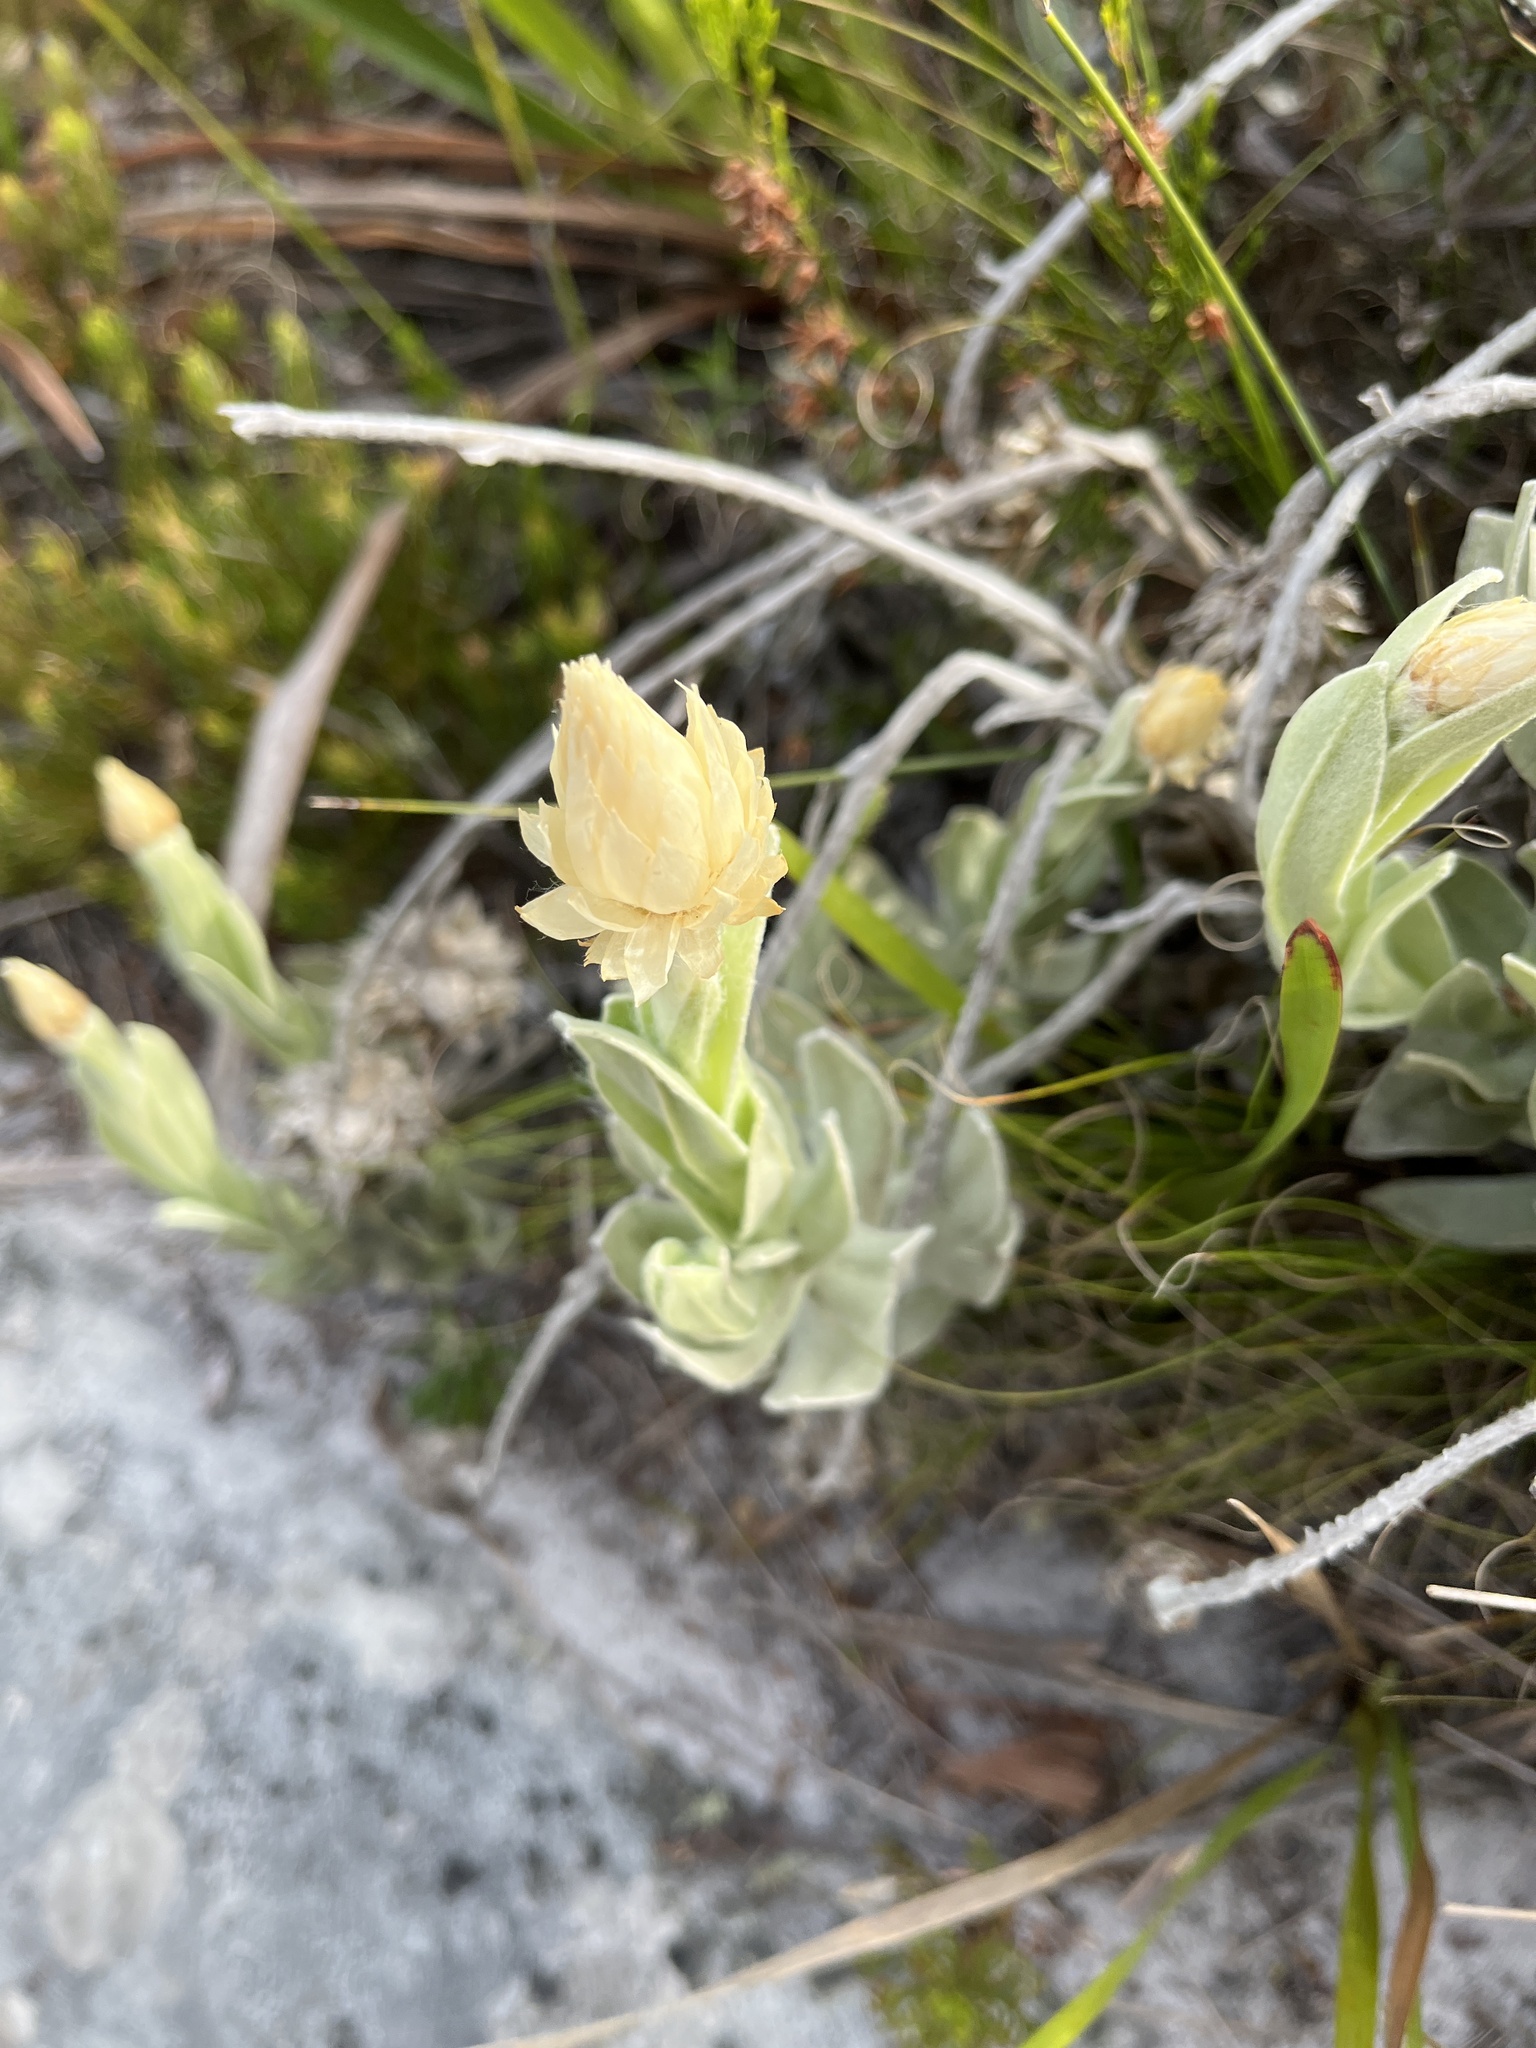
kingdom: Plantae
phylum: Tracheophyta
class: Magnoliopsida
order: Asterales
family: Asteraceae
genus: Syncarpha
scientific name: Syncarpha speciosissima
